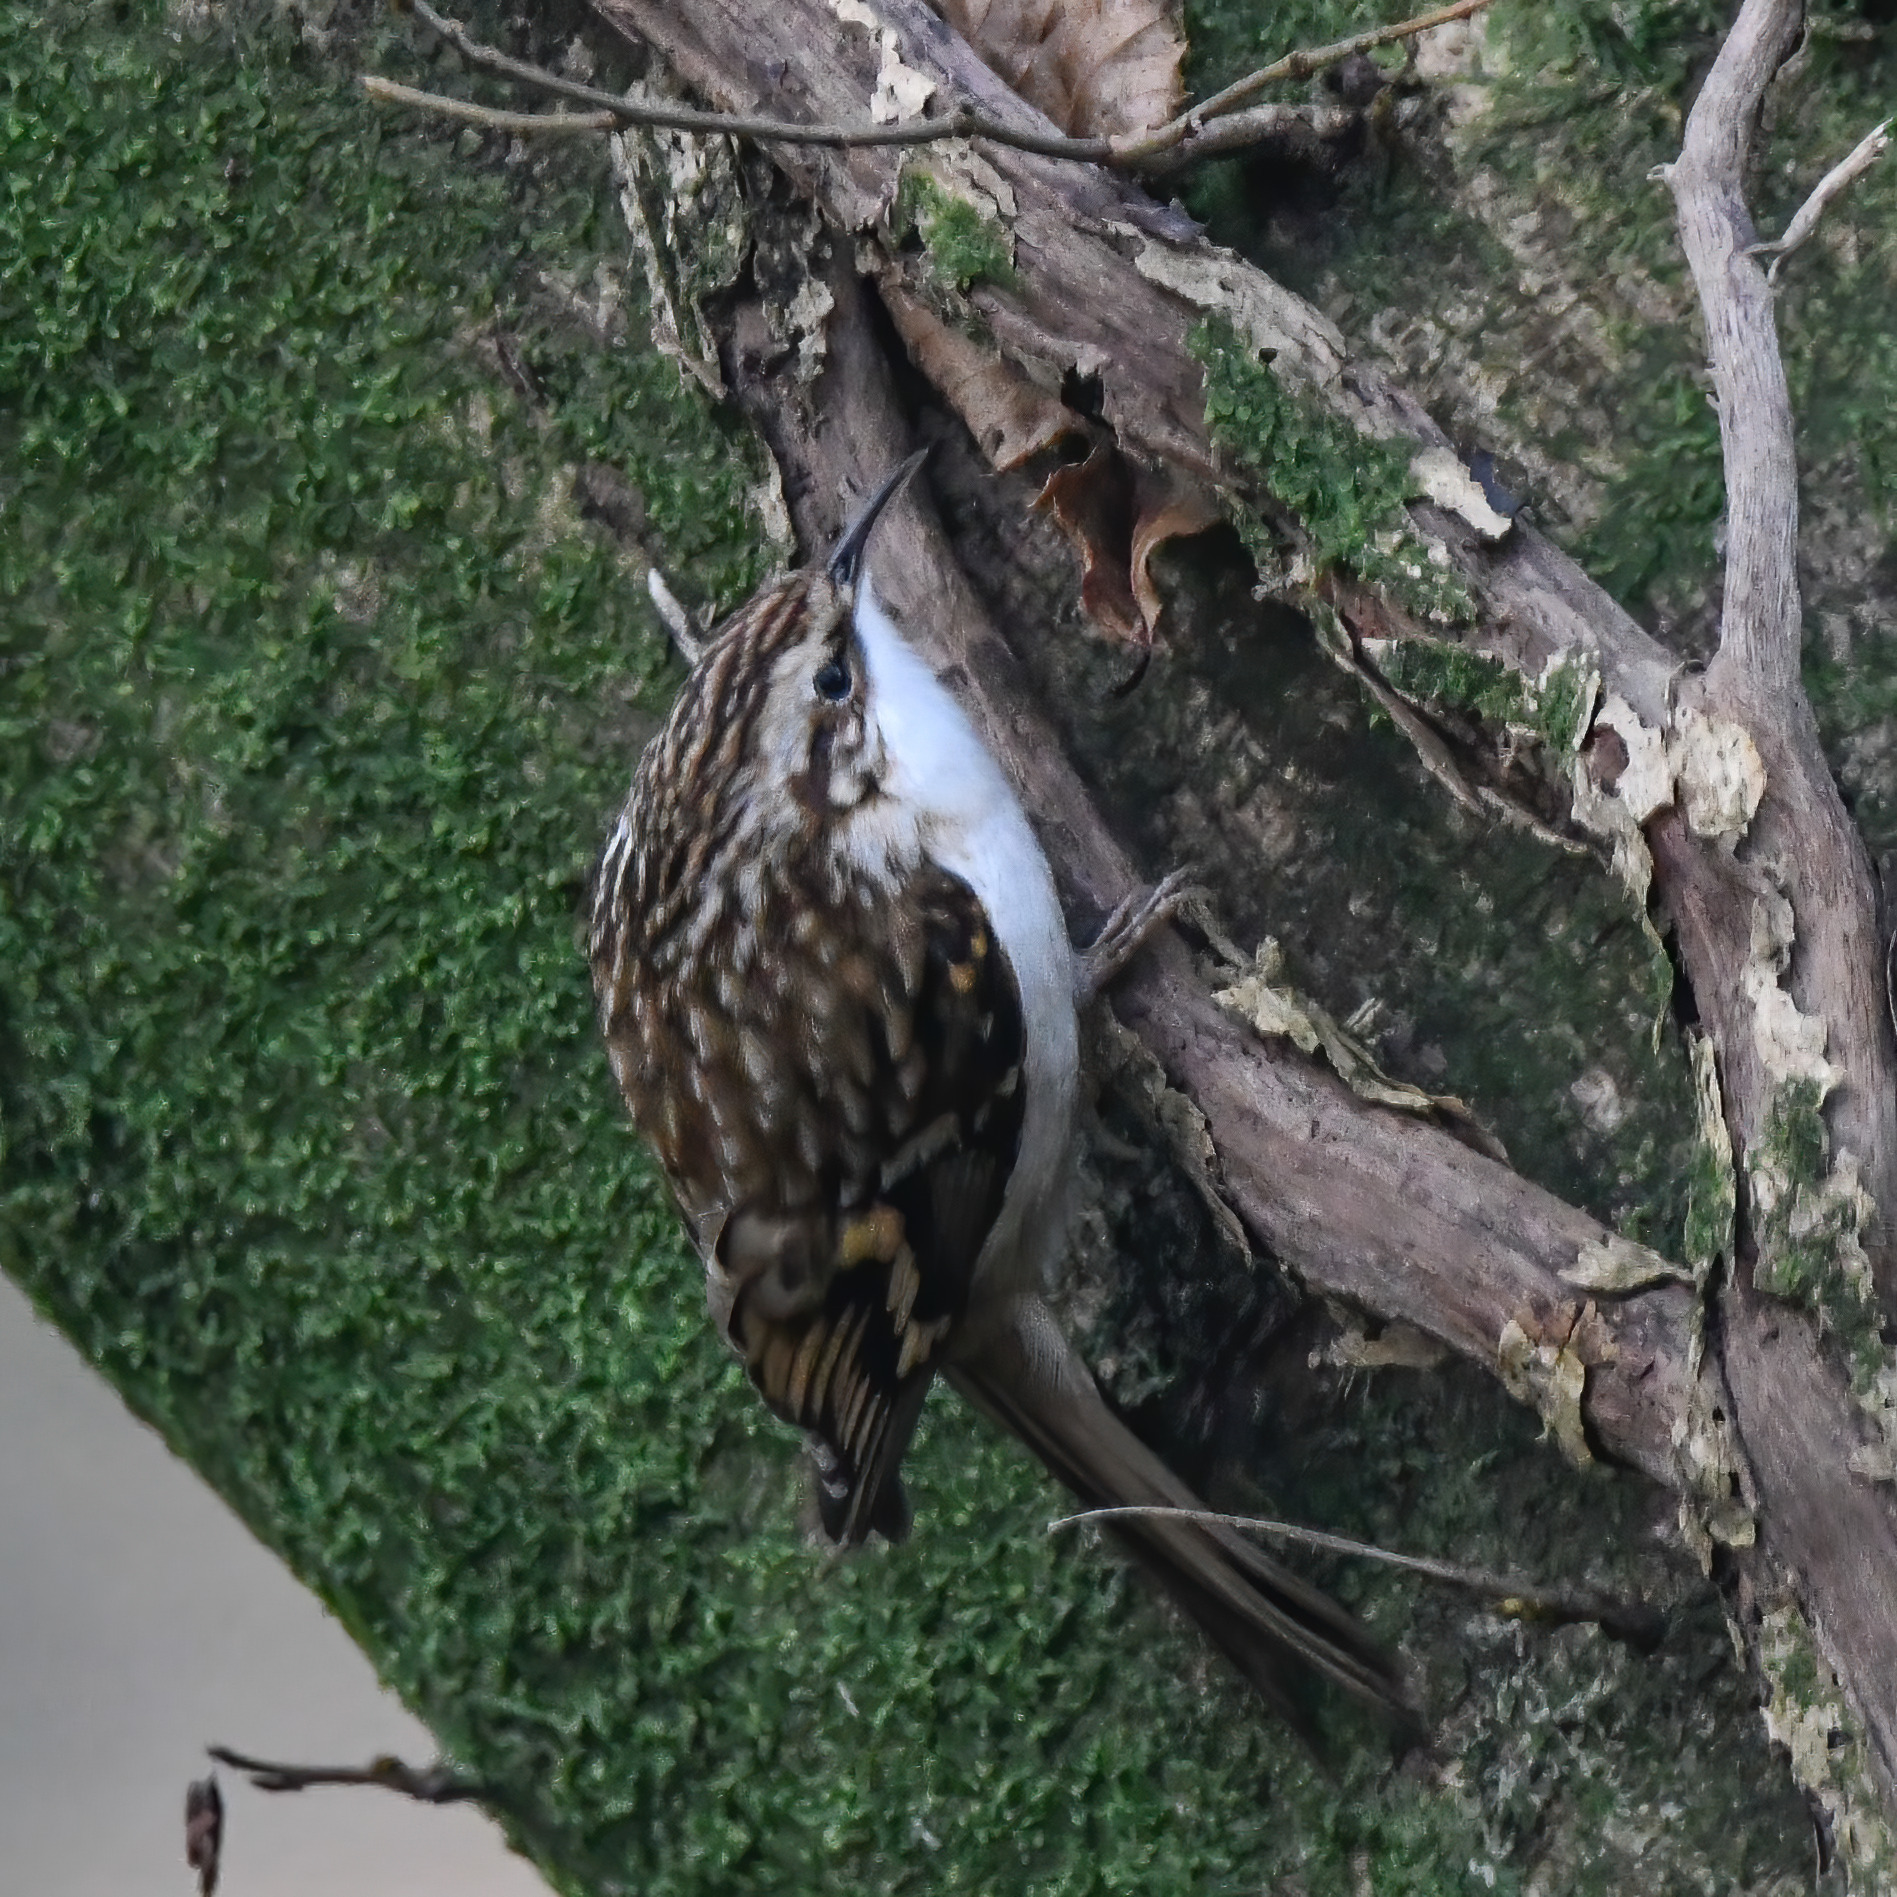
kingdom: Animalia
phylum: Chordata
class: Aves
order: Passeriformes
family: Certhiidae
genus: Certhia
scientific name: Certhia familiaris
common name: Eurasian treecreeper
